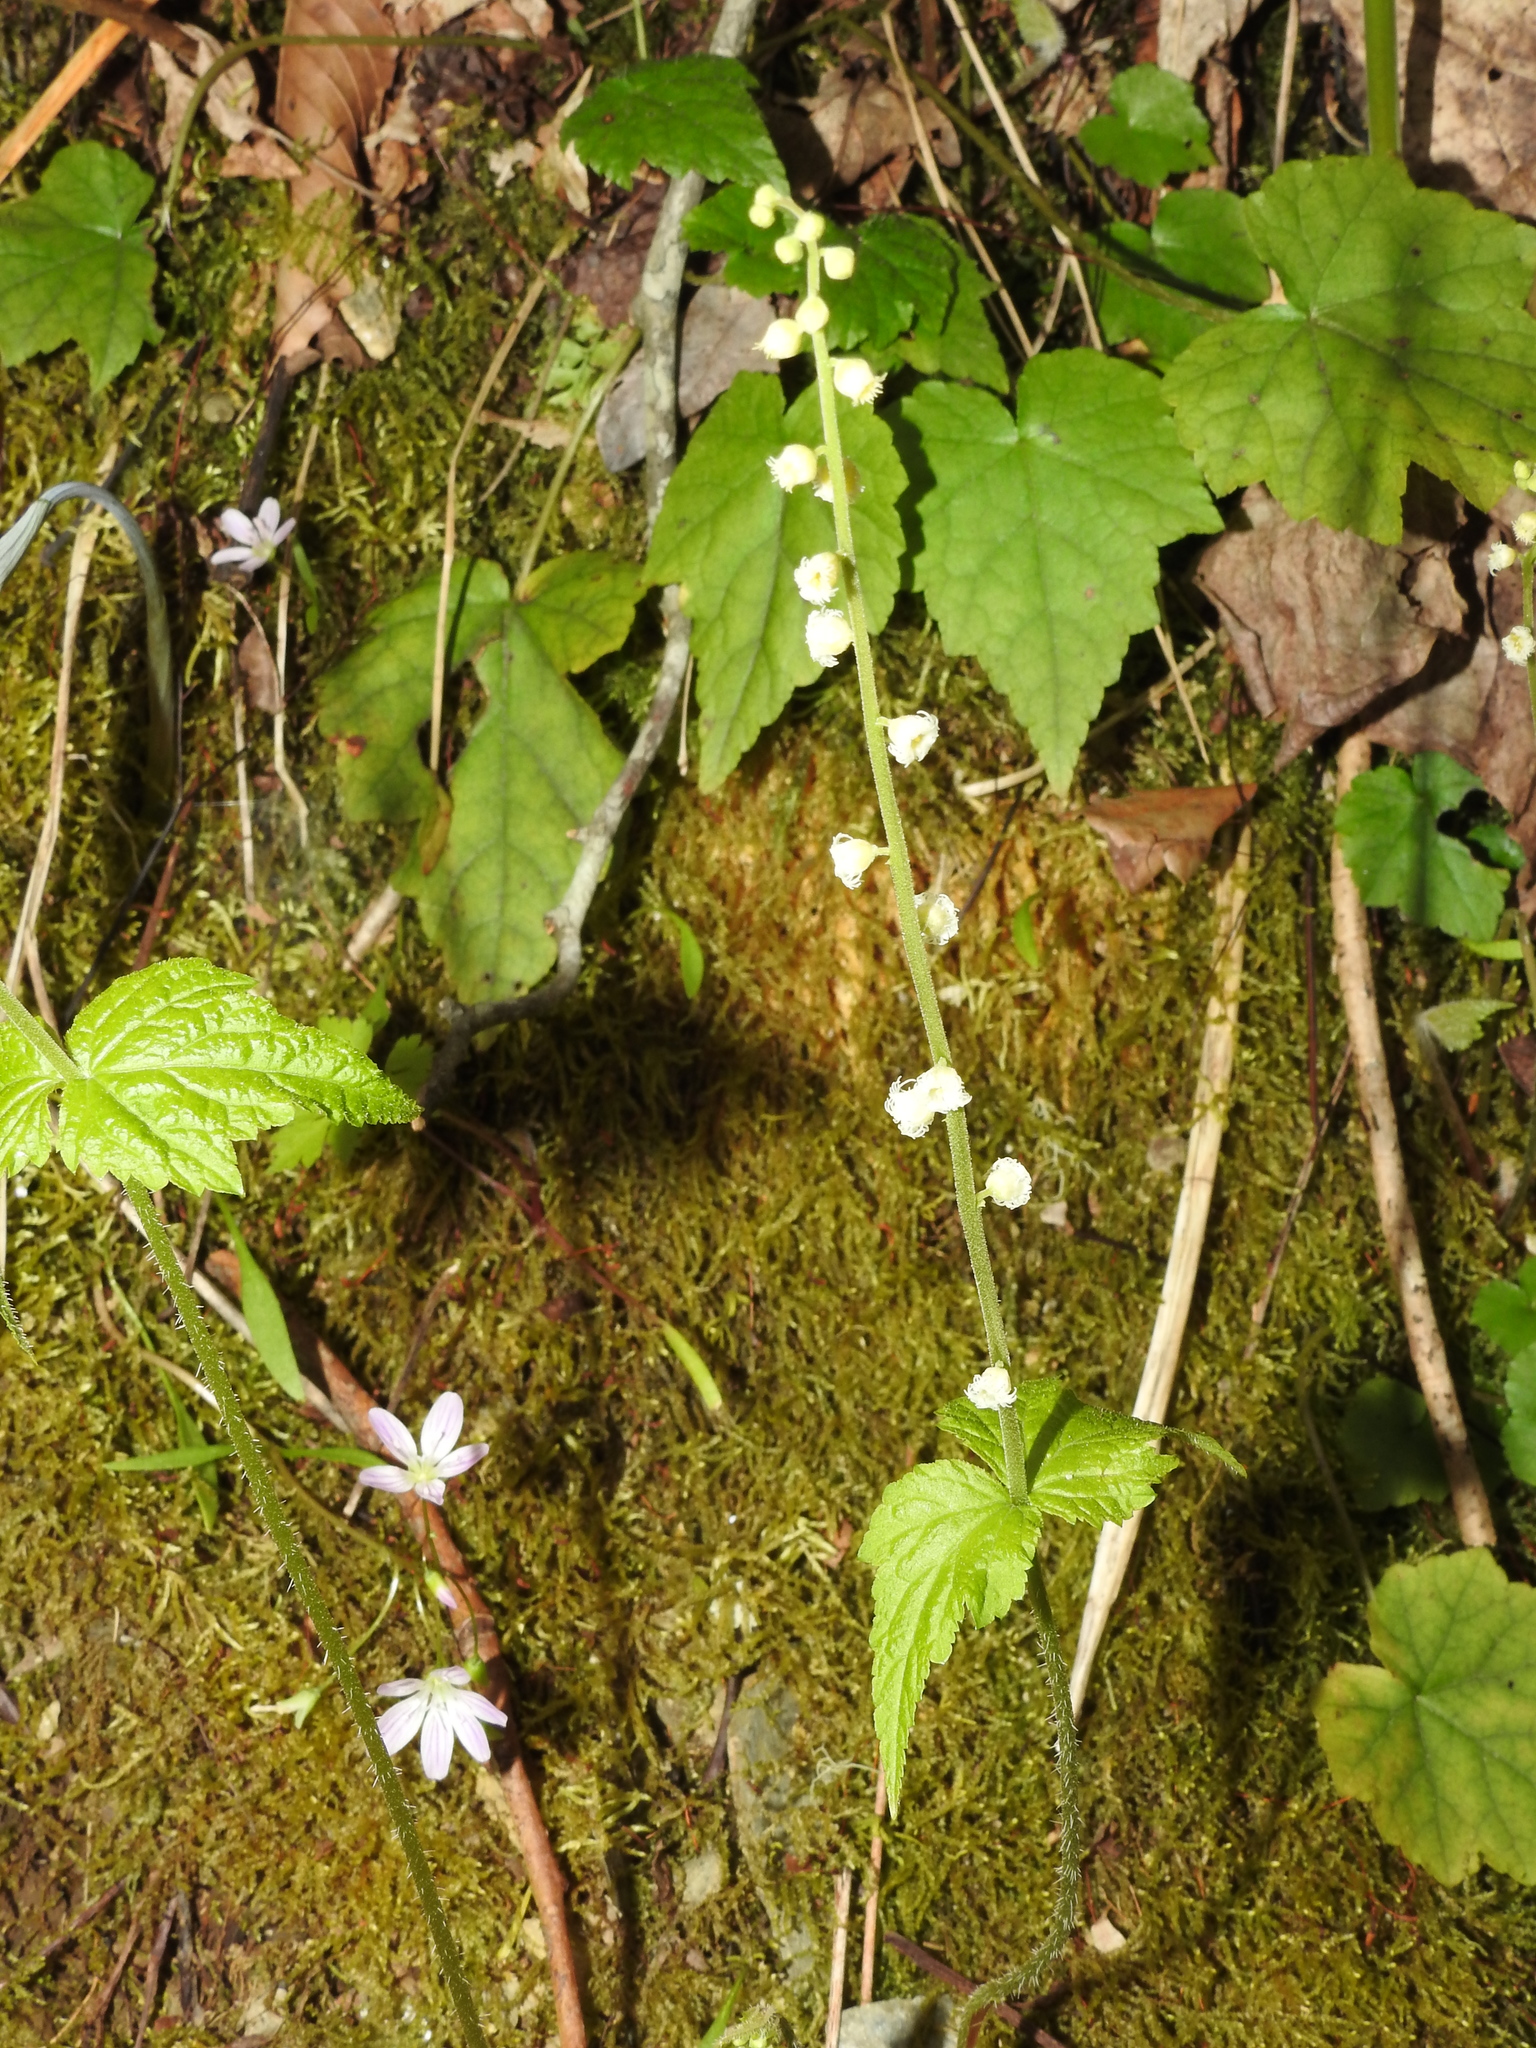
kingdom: Plantae
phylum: Tracheophyta
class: Magnoliopsida
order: Saxifragales
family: Saxifragaceae
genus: Mitella
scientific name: Mitella diphylla
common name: Coolwort
